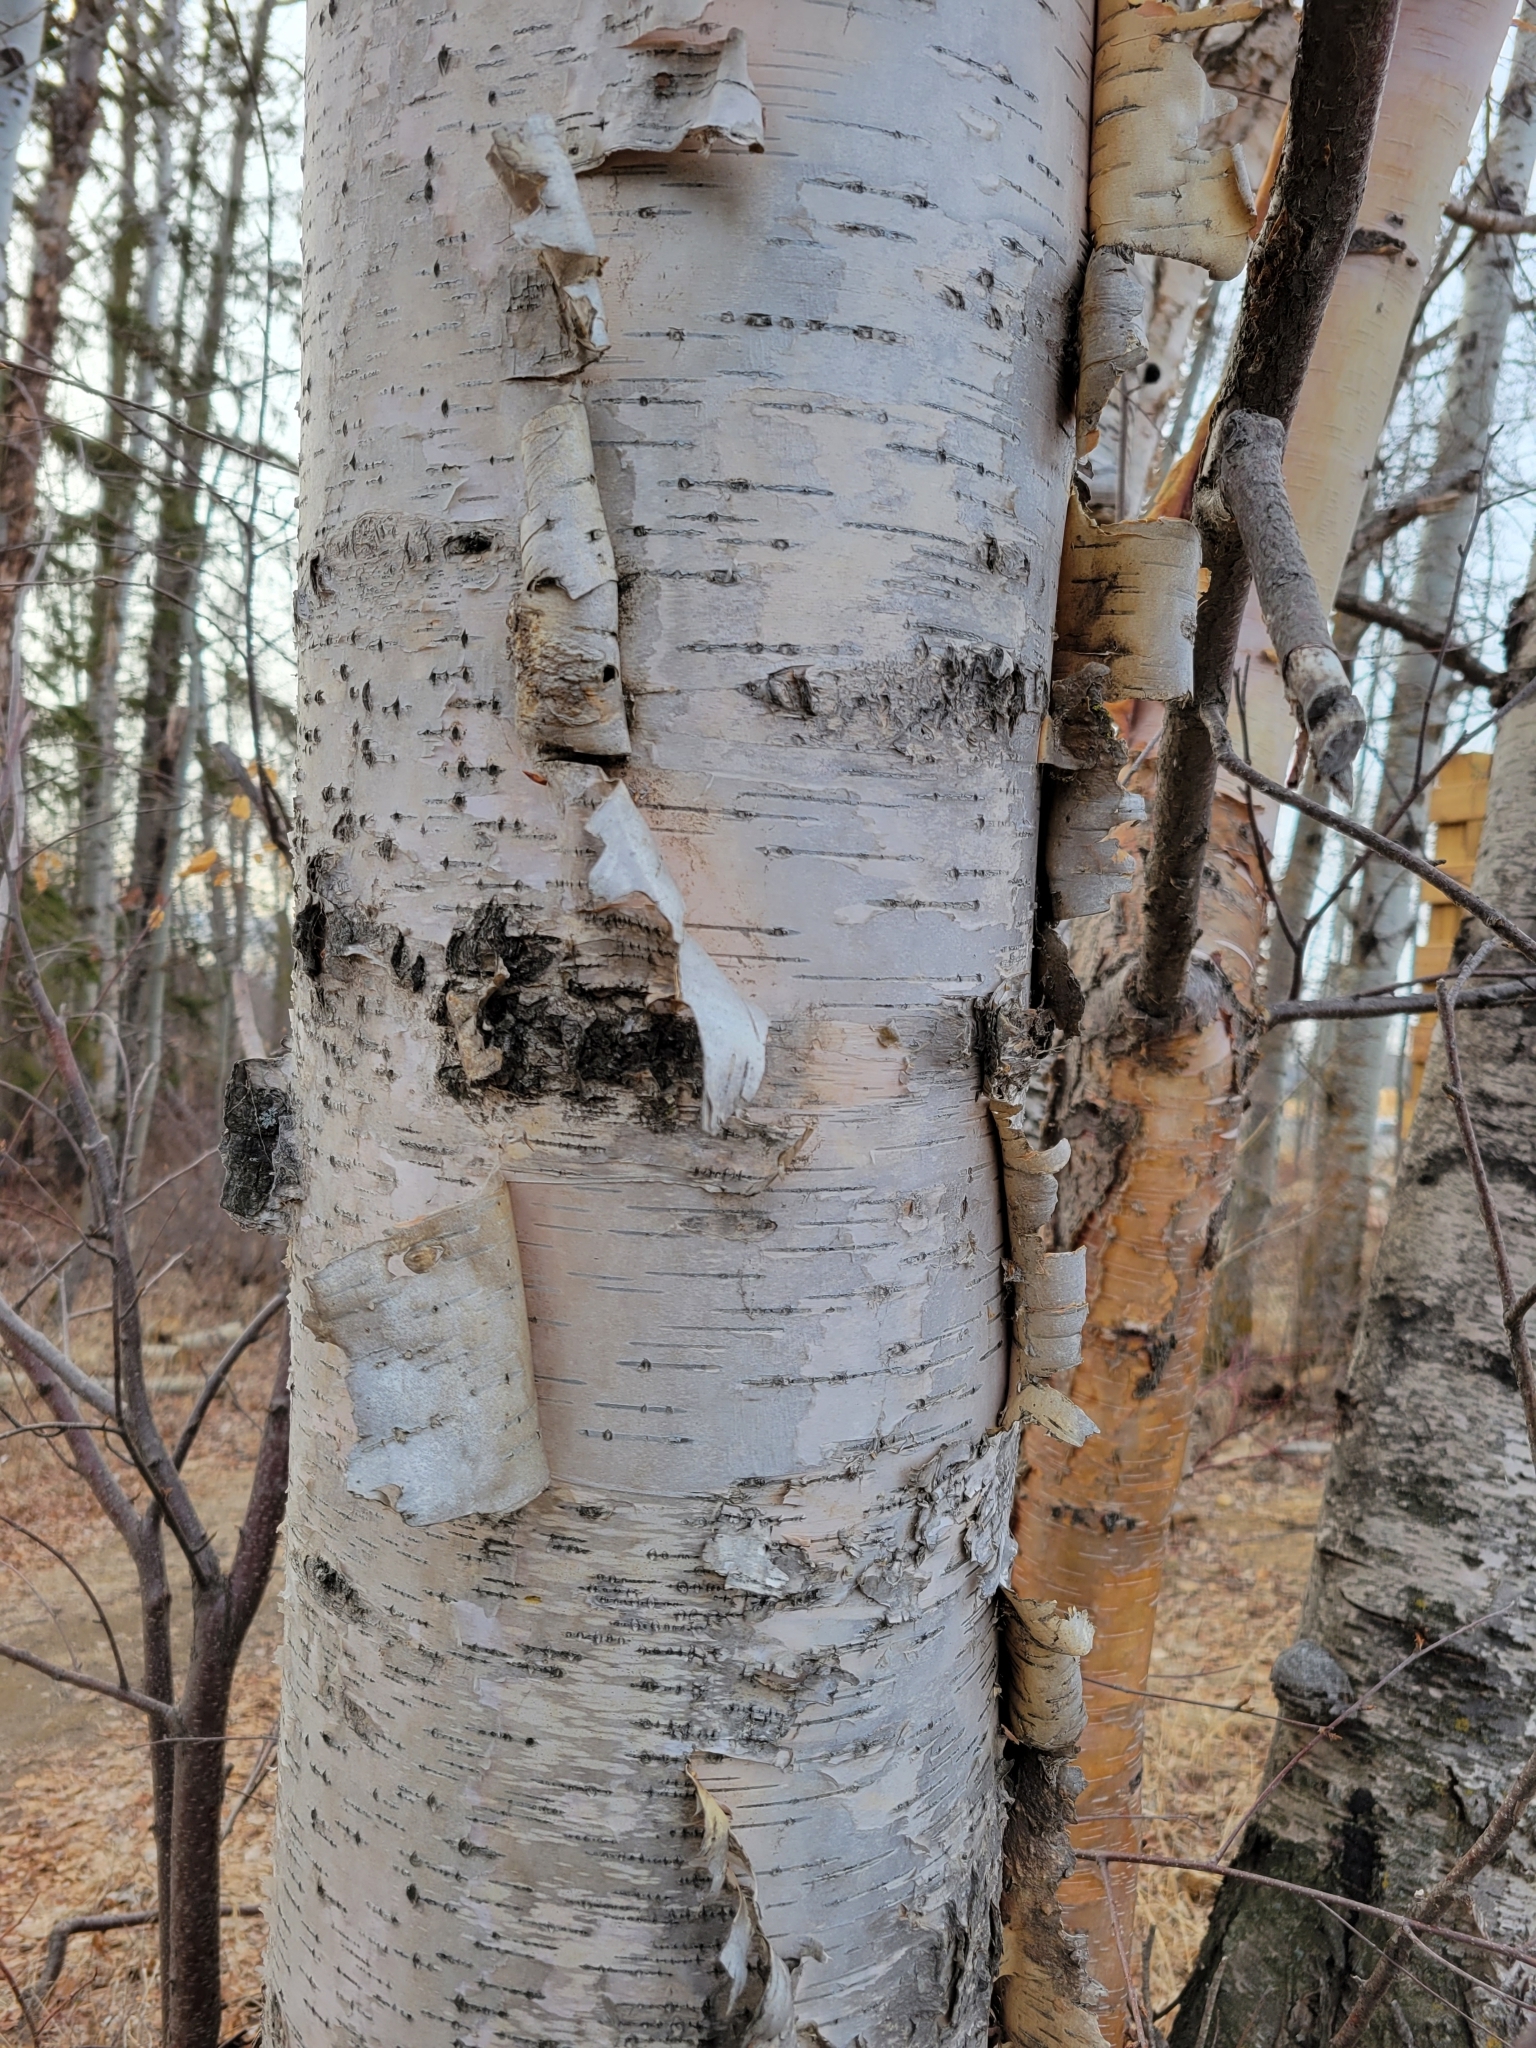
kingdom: Plantae
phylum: Tracheophyta
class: Magnoliopsida
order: Fagales
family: Betulaceae
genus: Betula
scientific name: Betula papyrifera
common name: Paper birch
